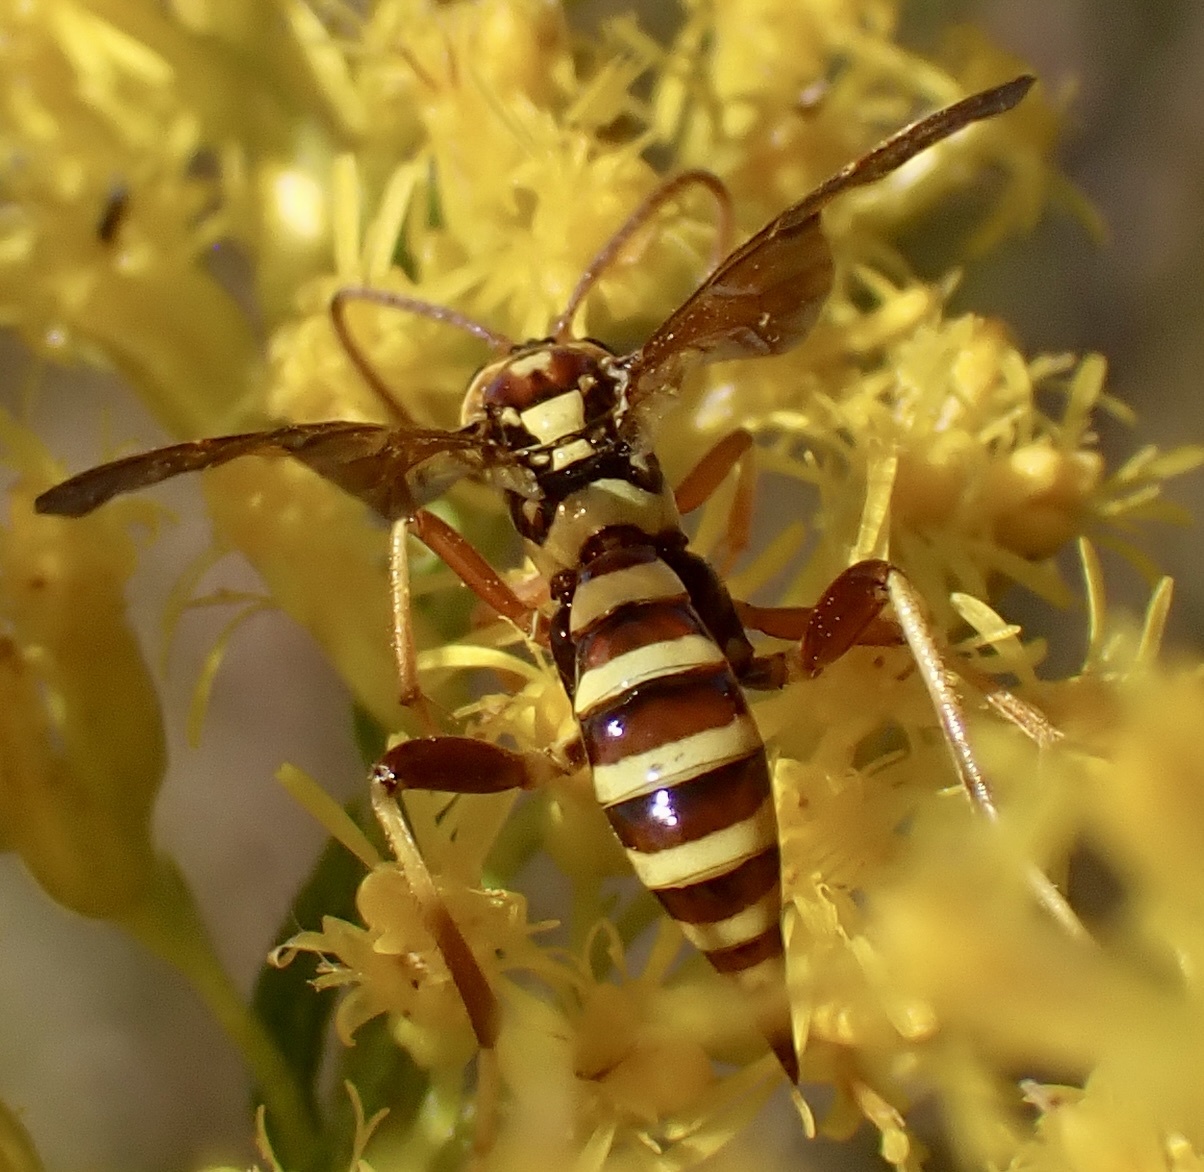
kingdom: Animalia
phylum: Arthropoda
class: Insecta
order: Hymenoptera
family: Ichneumonidae
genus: Ceratogastra
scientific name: Ceratogastra ornata
